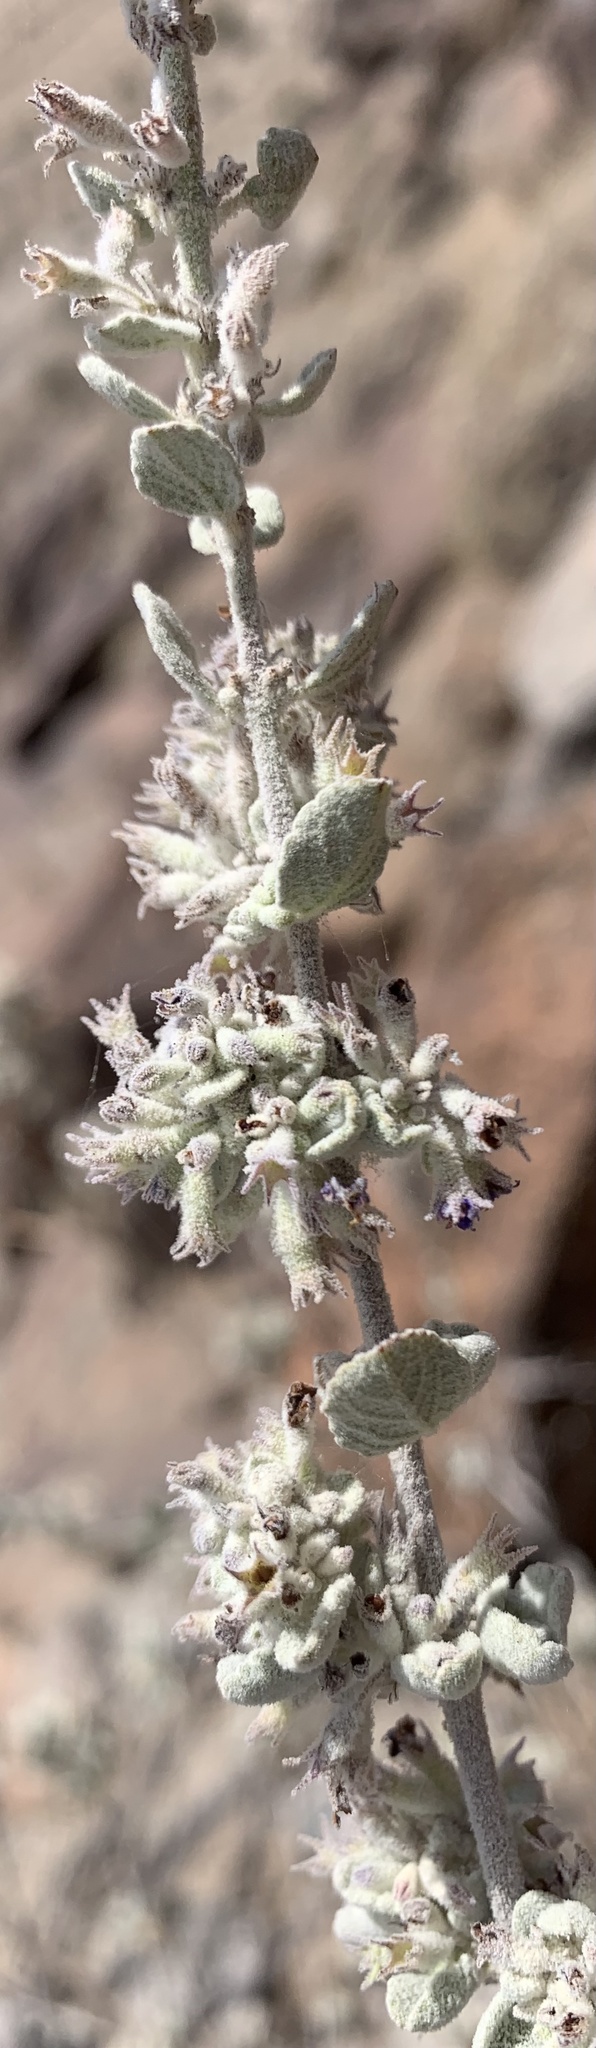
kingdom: Plantae
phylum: Tracheophyta
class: Magnoliopsida
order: Lamiales
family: Lamiaceae
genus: Condea
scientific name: Condea emoryi
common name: Chia
